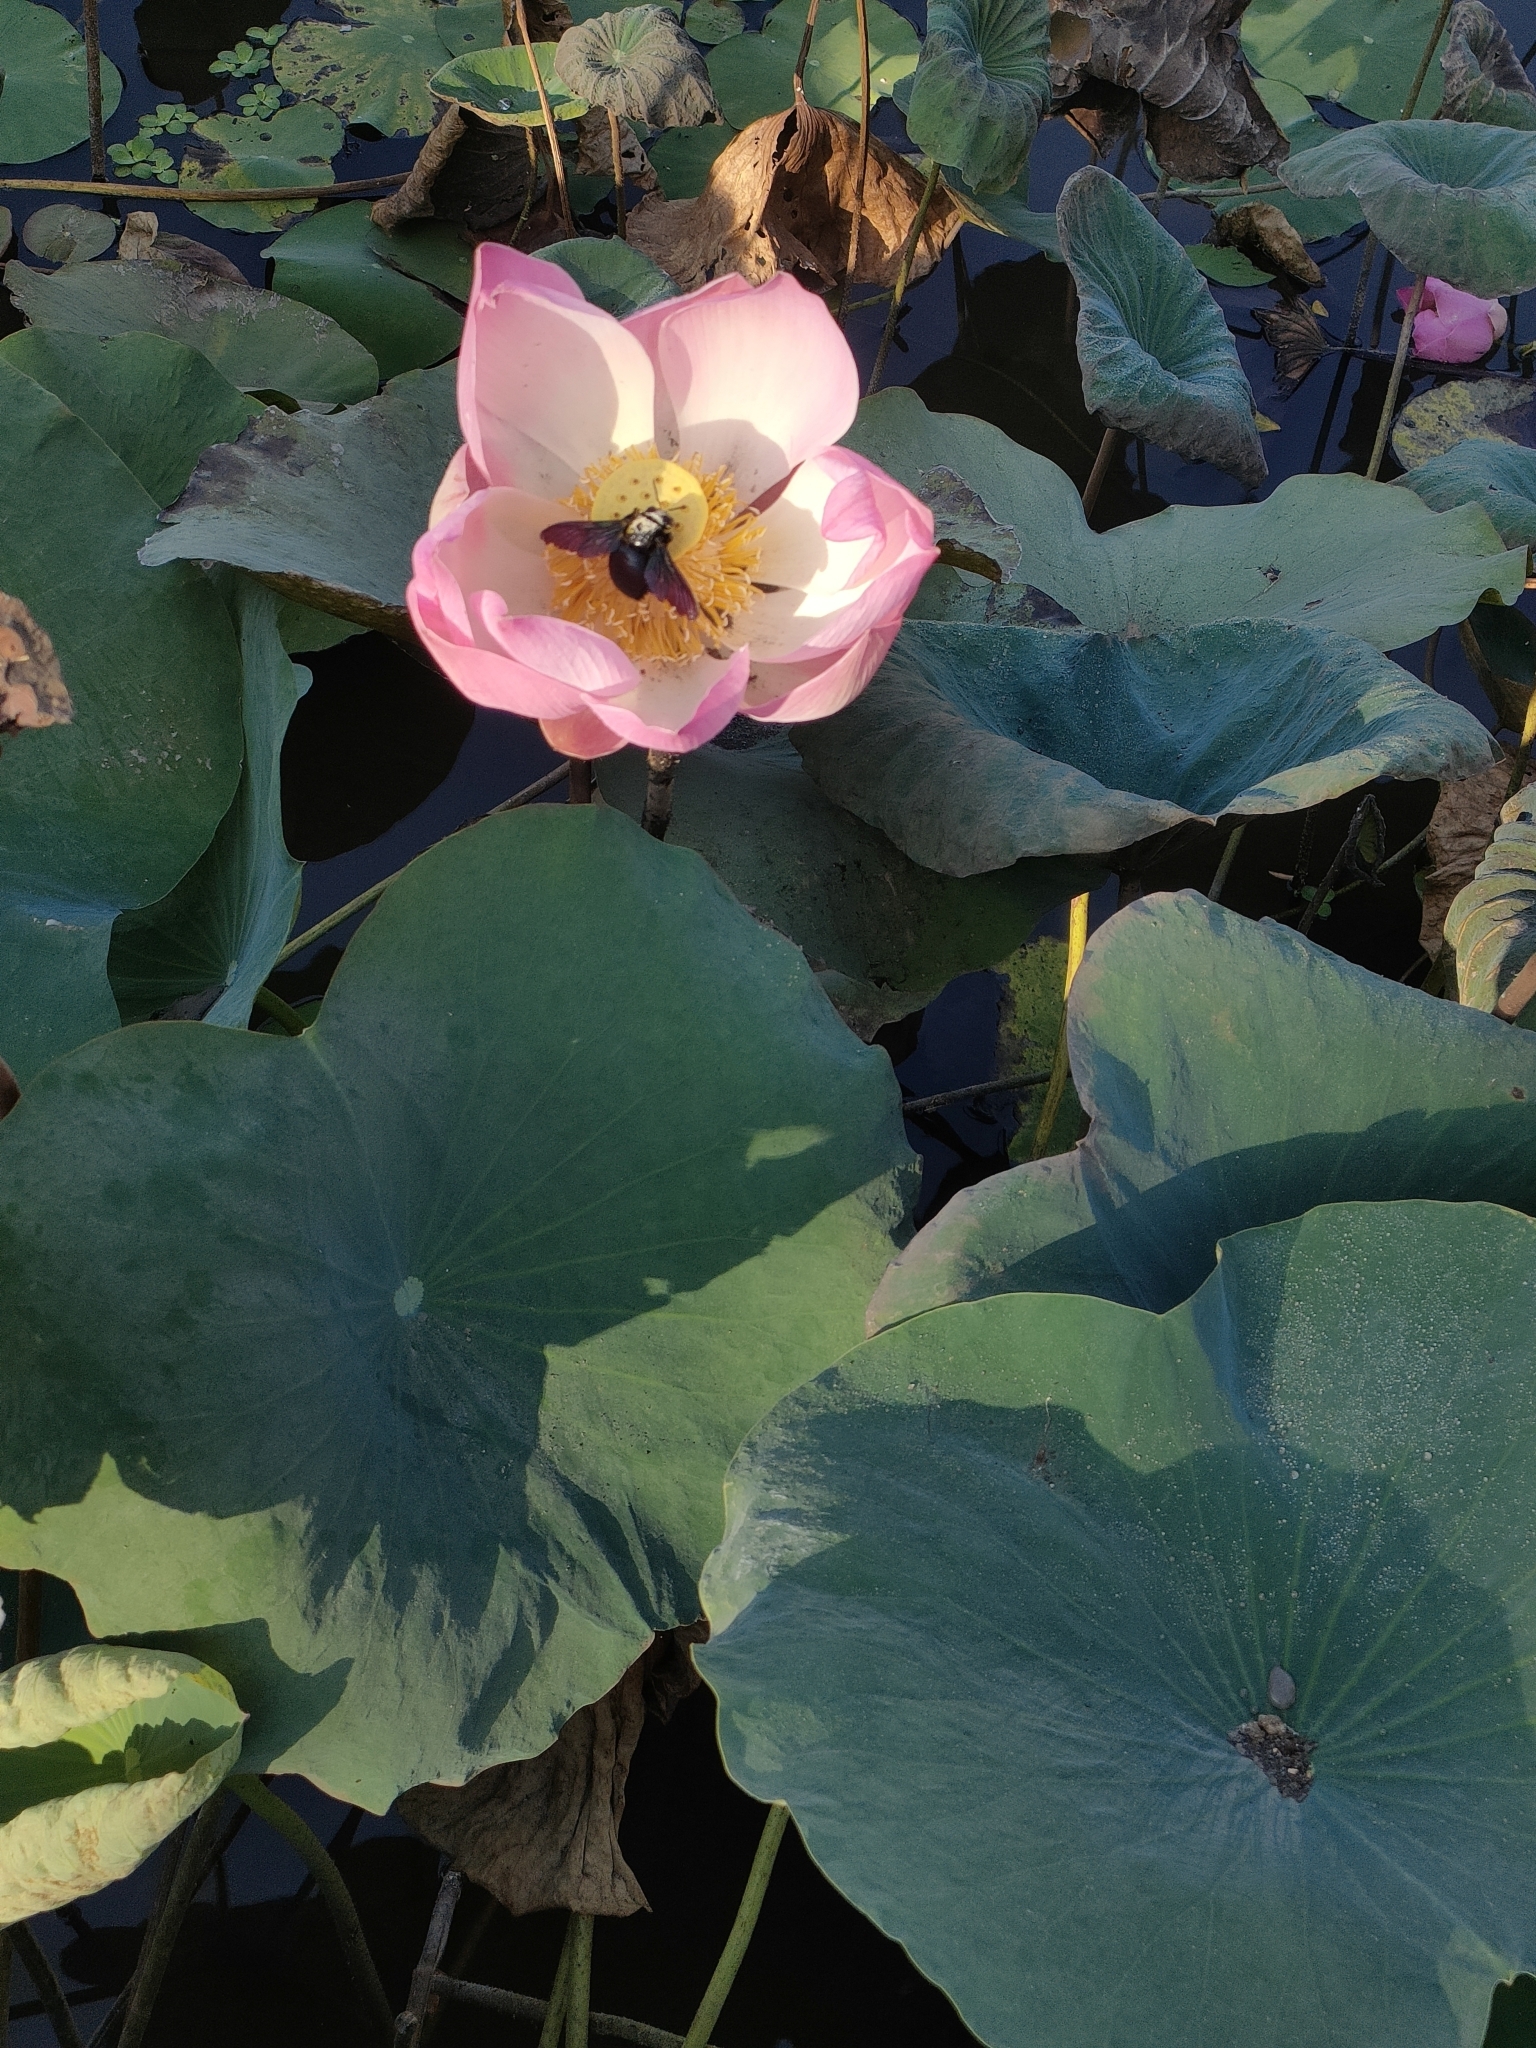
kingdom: Plantae
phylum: Tracheophyta
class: Magnoliopsida
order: Proteales
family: Nelumbonaceae
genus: Nelumbo
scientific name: Nelumbo nucifera
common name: Sacred lotus
